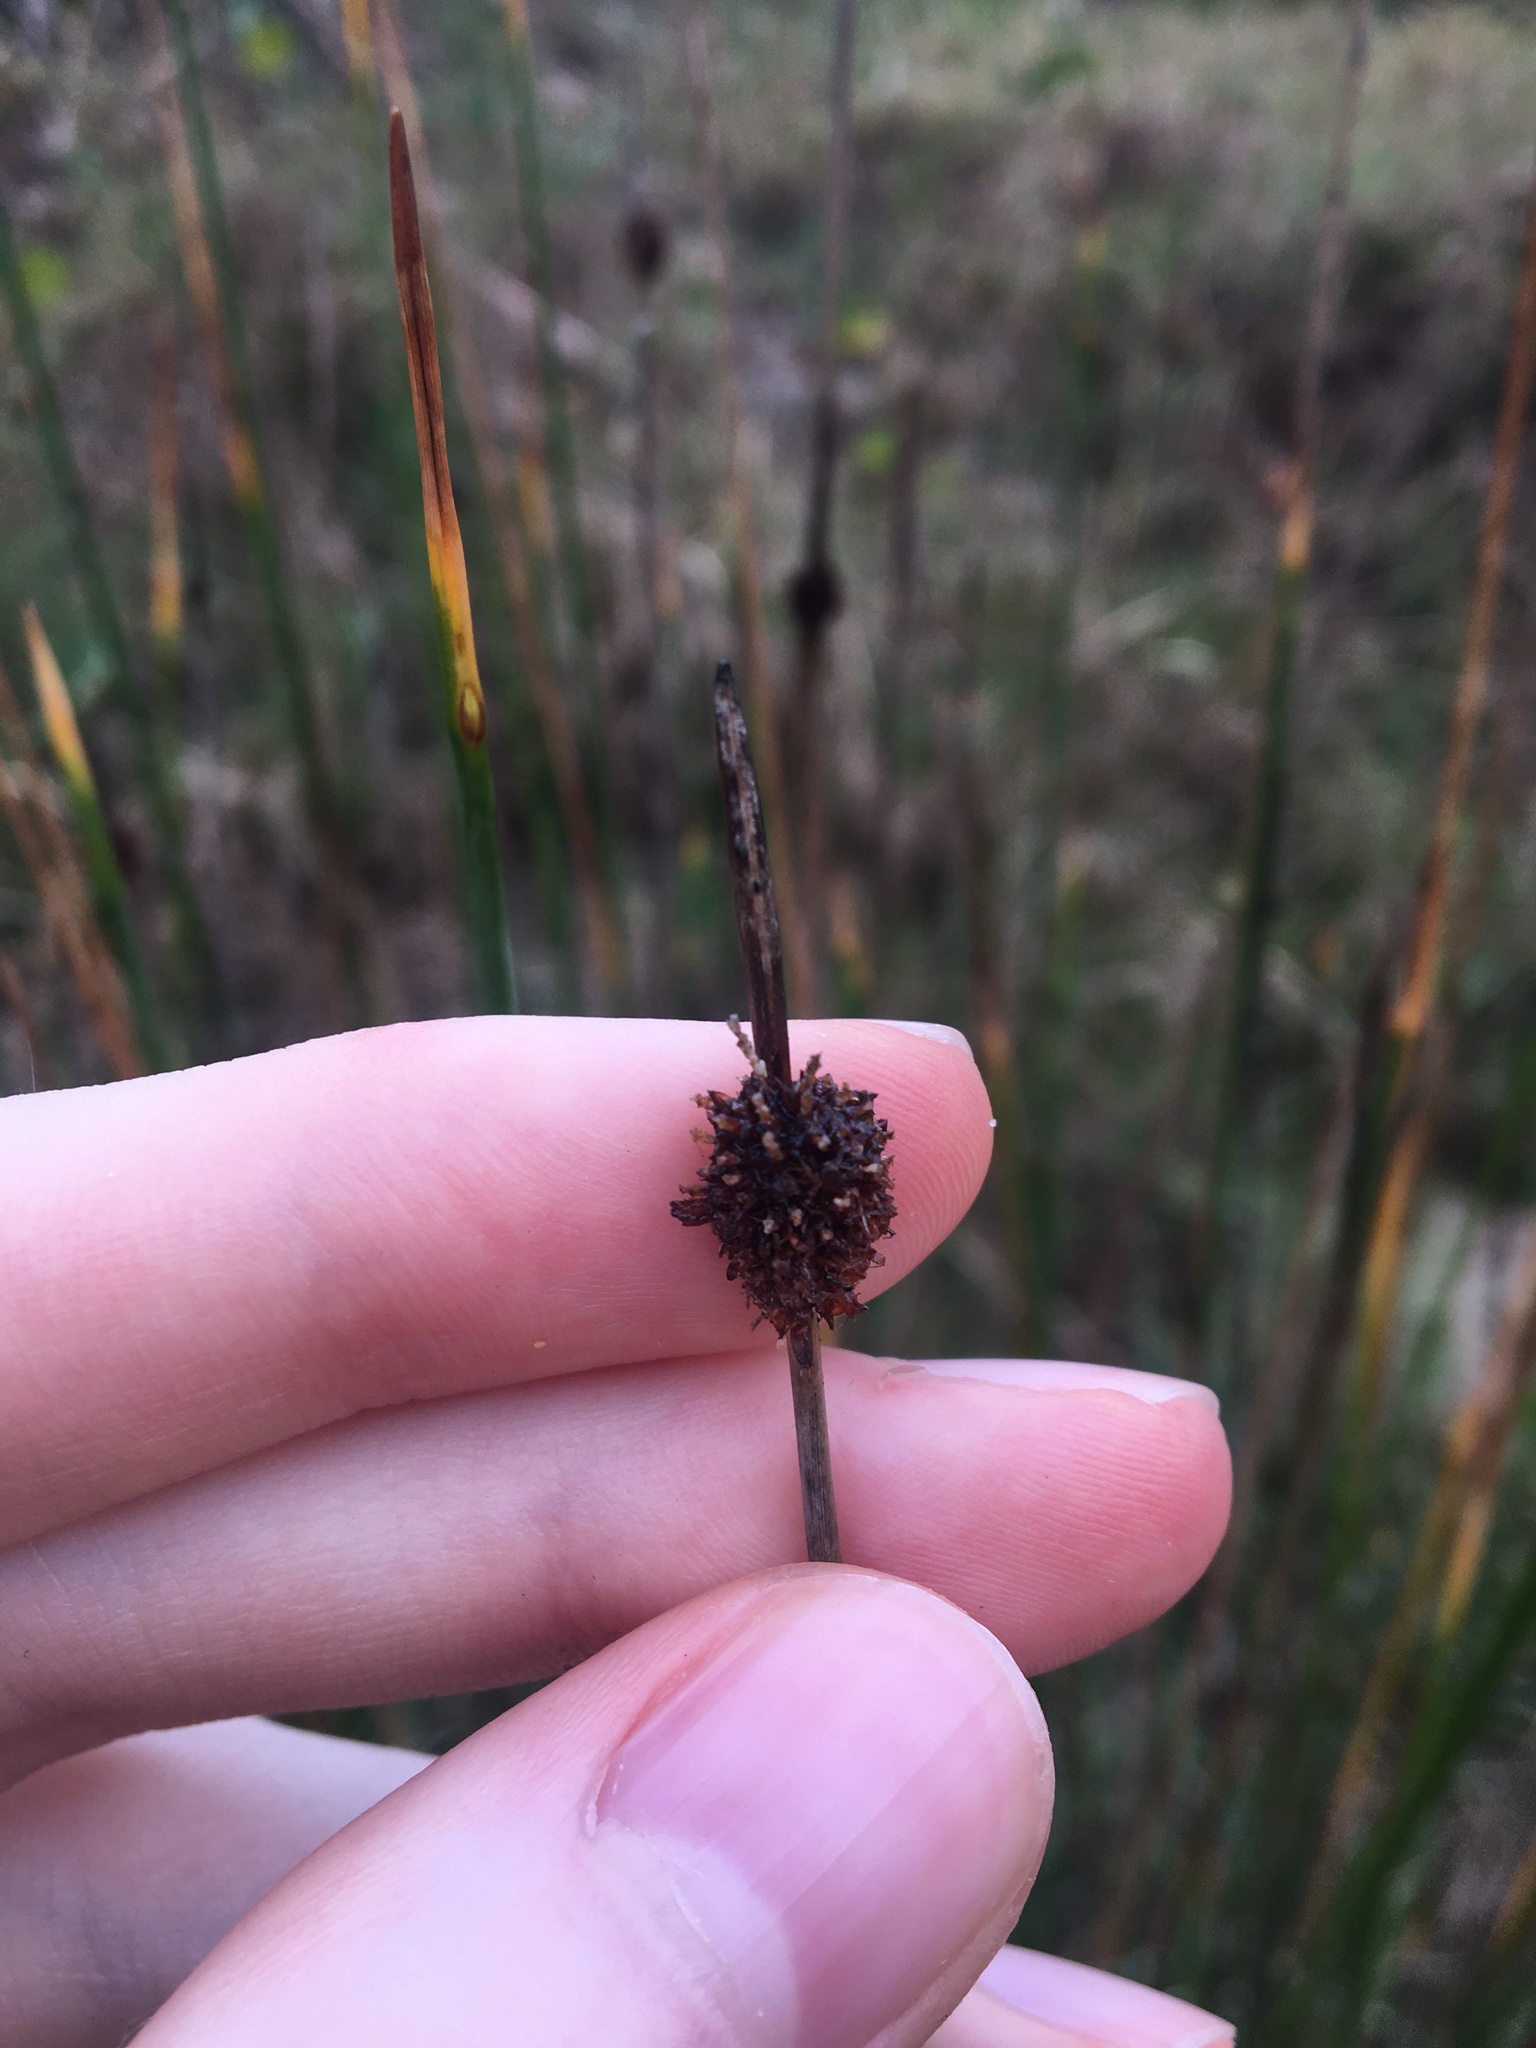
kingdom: Plantae
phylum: Tracheophyta
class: Liliopsida
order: Poales
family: Cyperaceae
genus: Ficinia
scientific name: Ficinia nodosa
